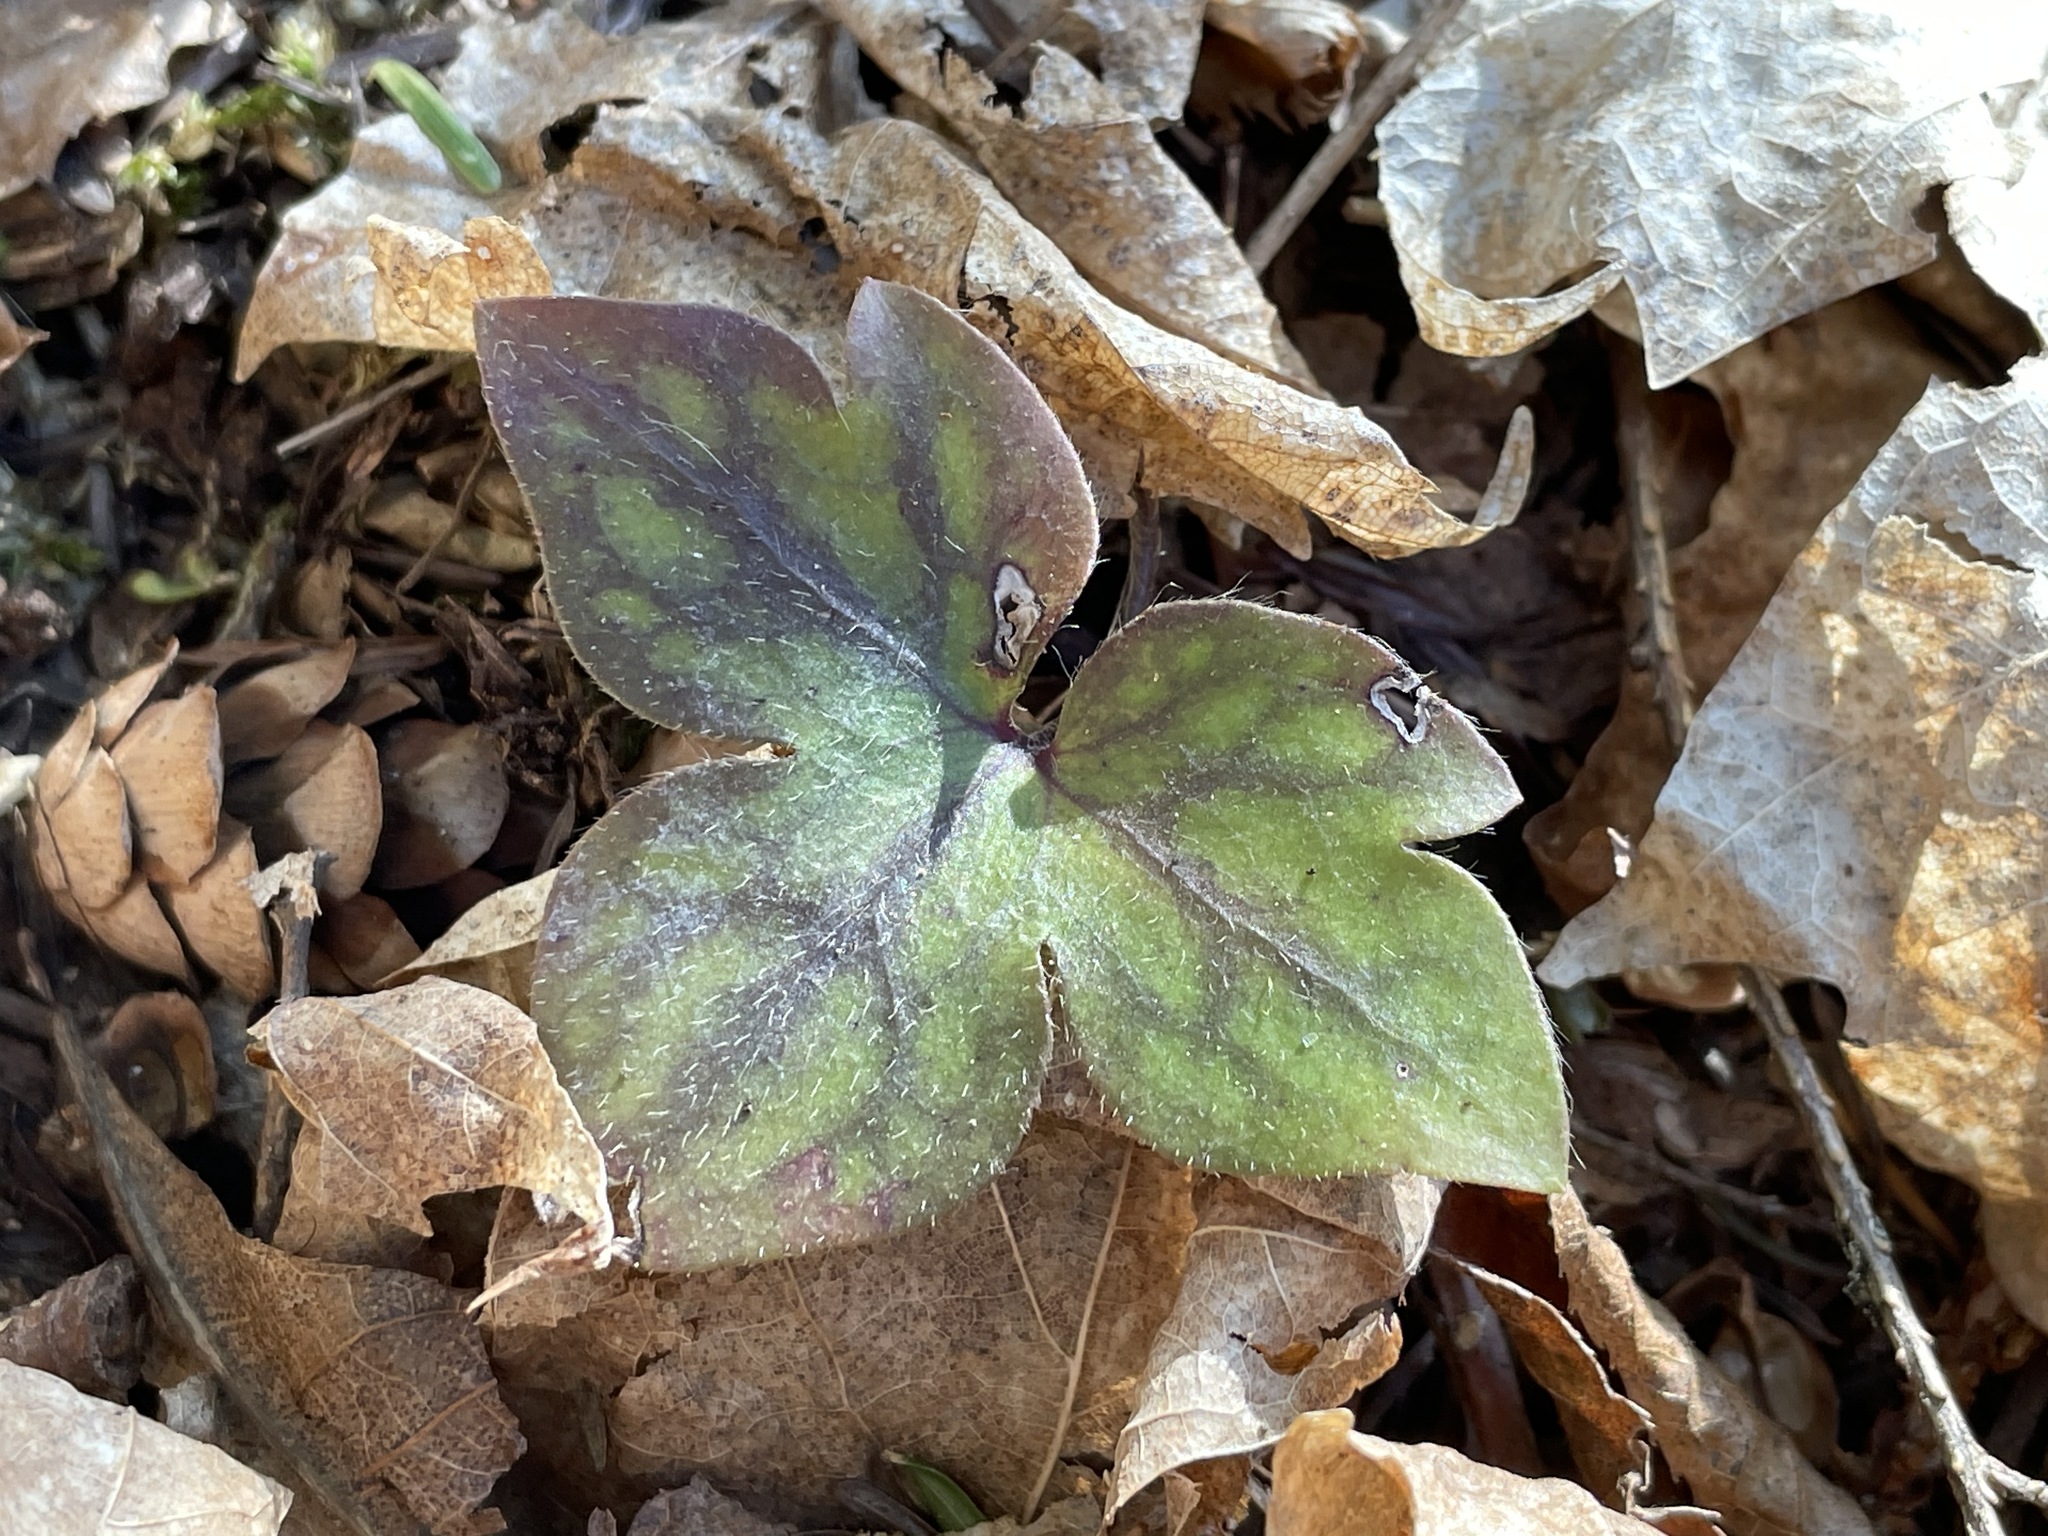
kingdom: Plantae
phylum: Tracheophyta
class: Magnoliopsida
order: Ranunculales
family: Ranunculaceae
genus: Hepatica
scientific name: Hepatica acutiloba
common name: Sharp-lobed hepatica
